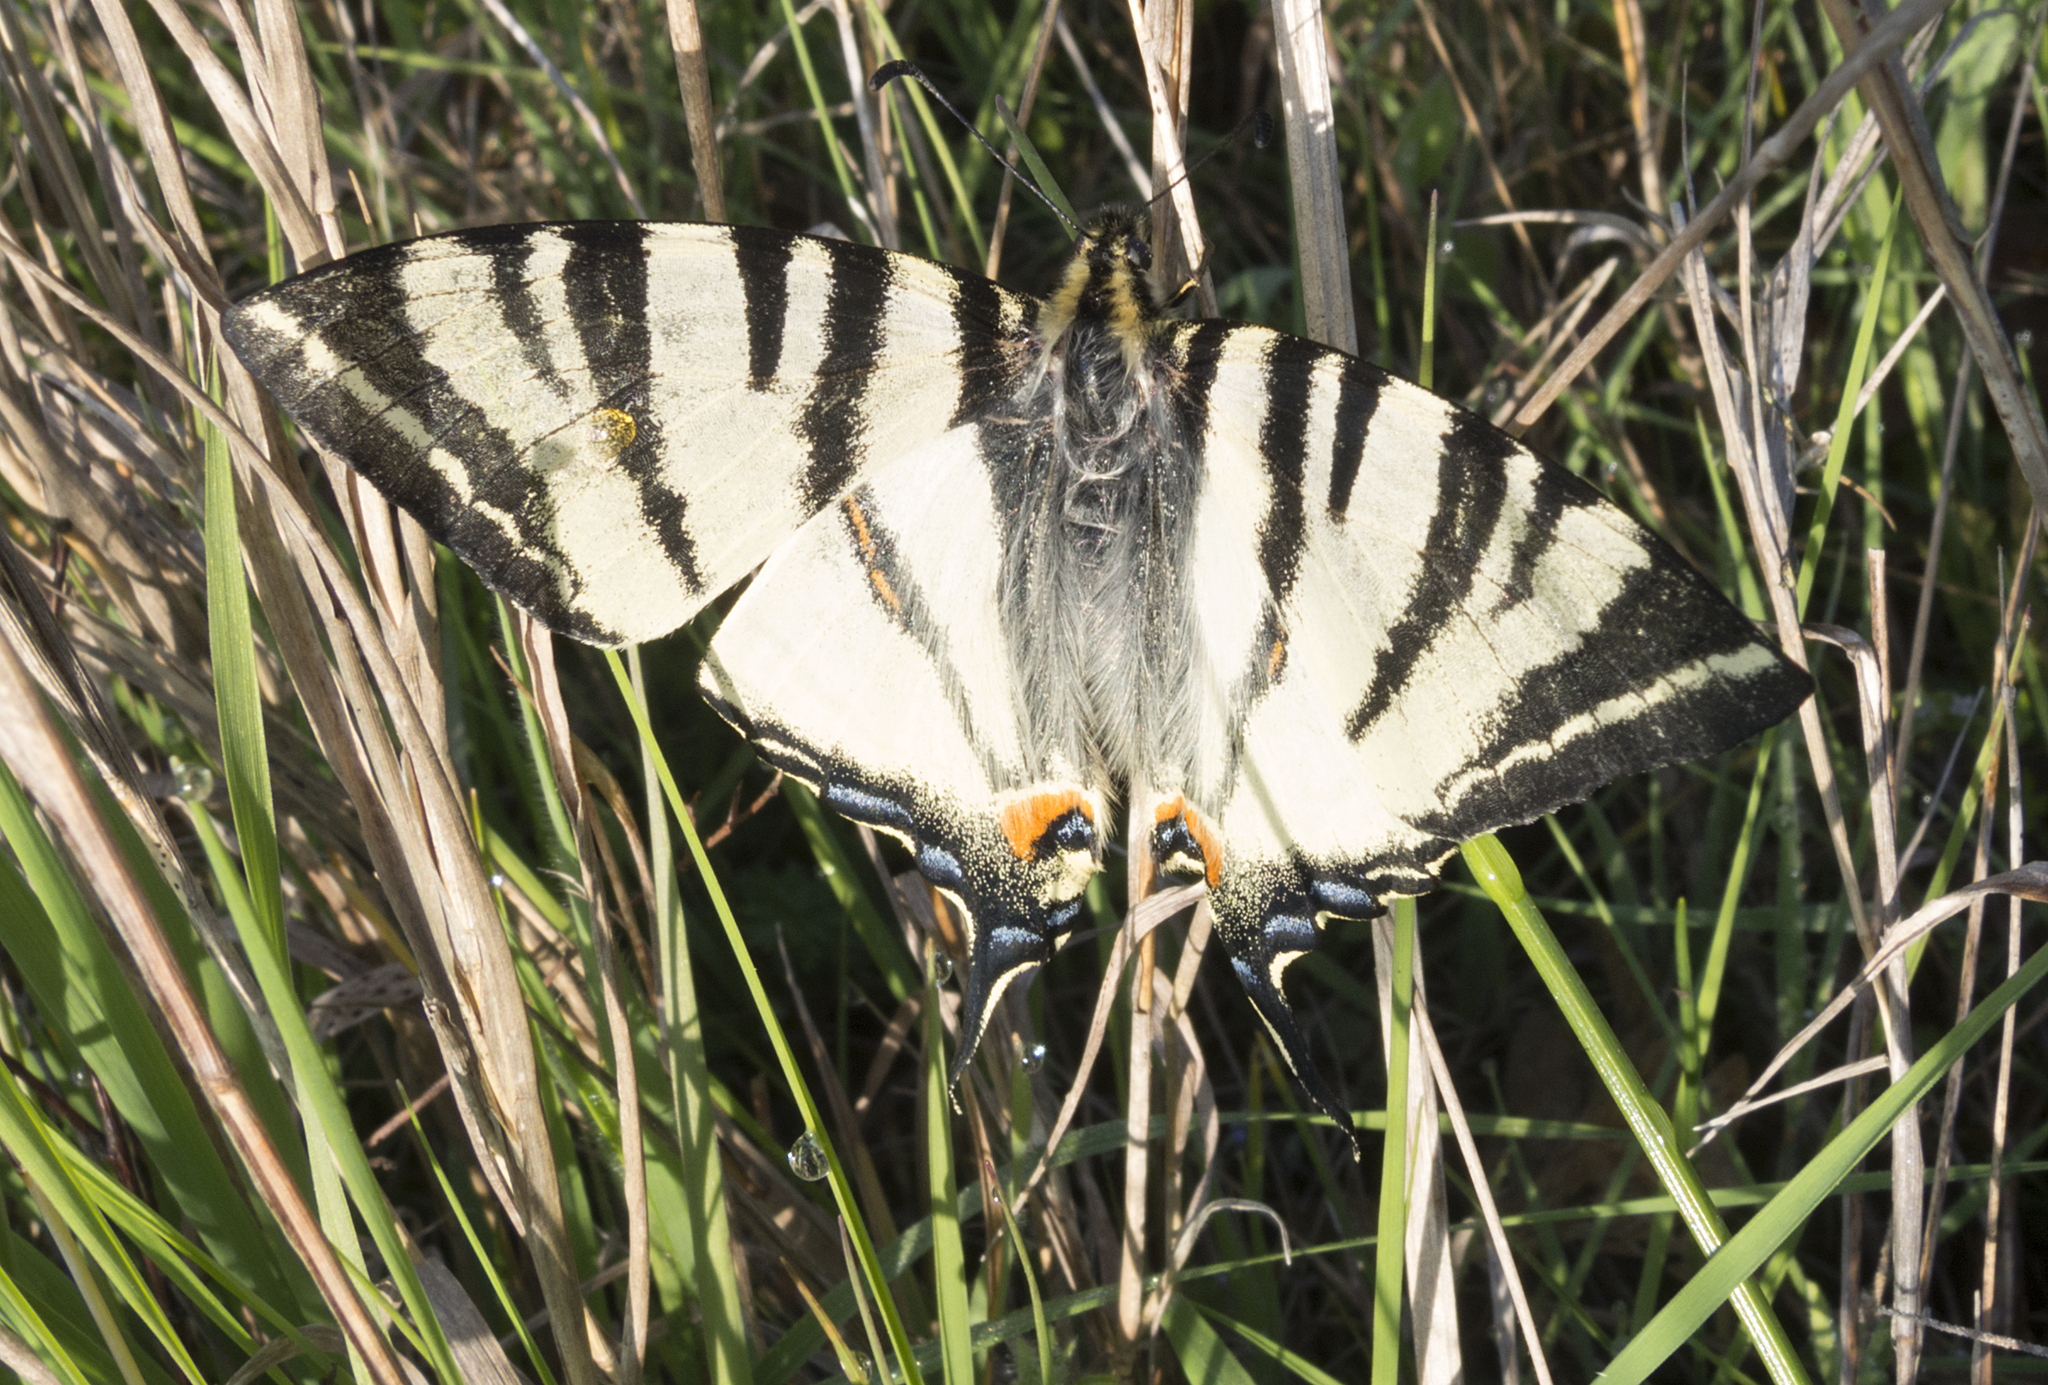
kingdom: Animalia
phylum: Arthropoda
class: Insecta
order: Lepidoptera
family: Papilionidae
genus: Iphiclides
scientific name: Iphiclides podalirius
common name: Scarce swallowtail
